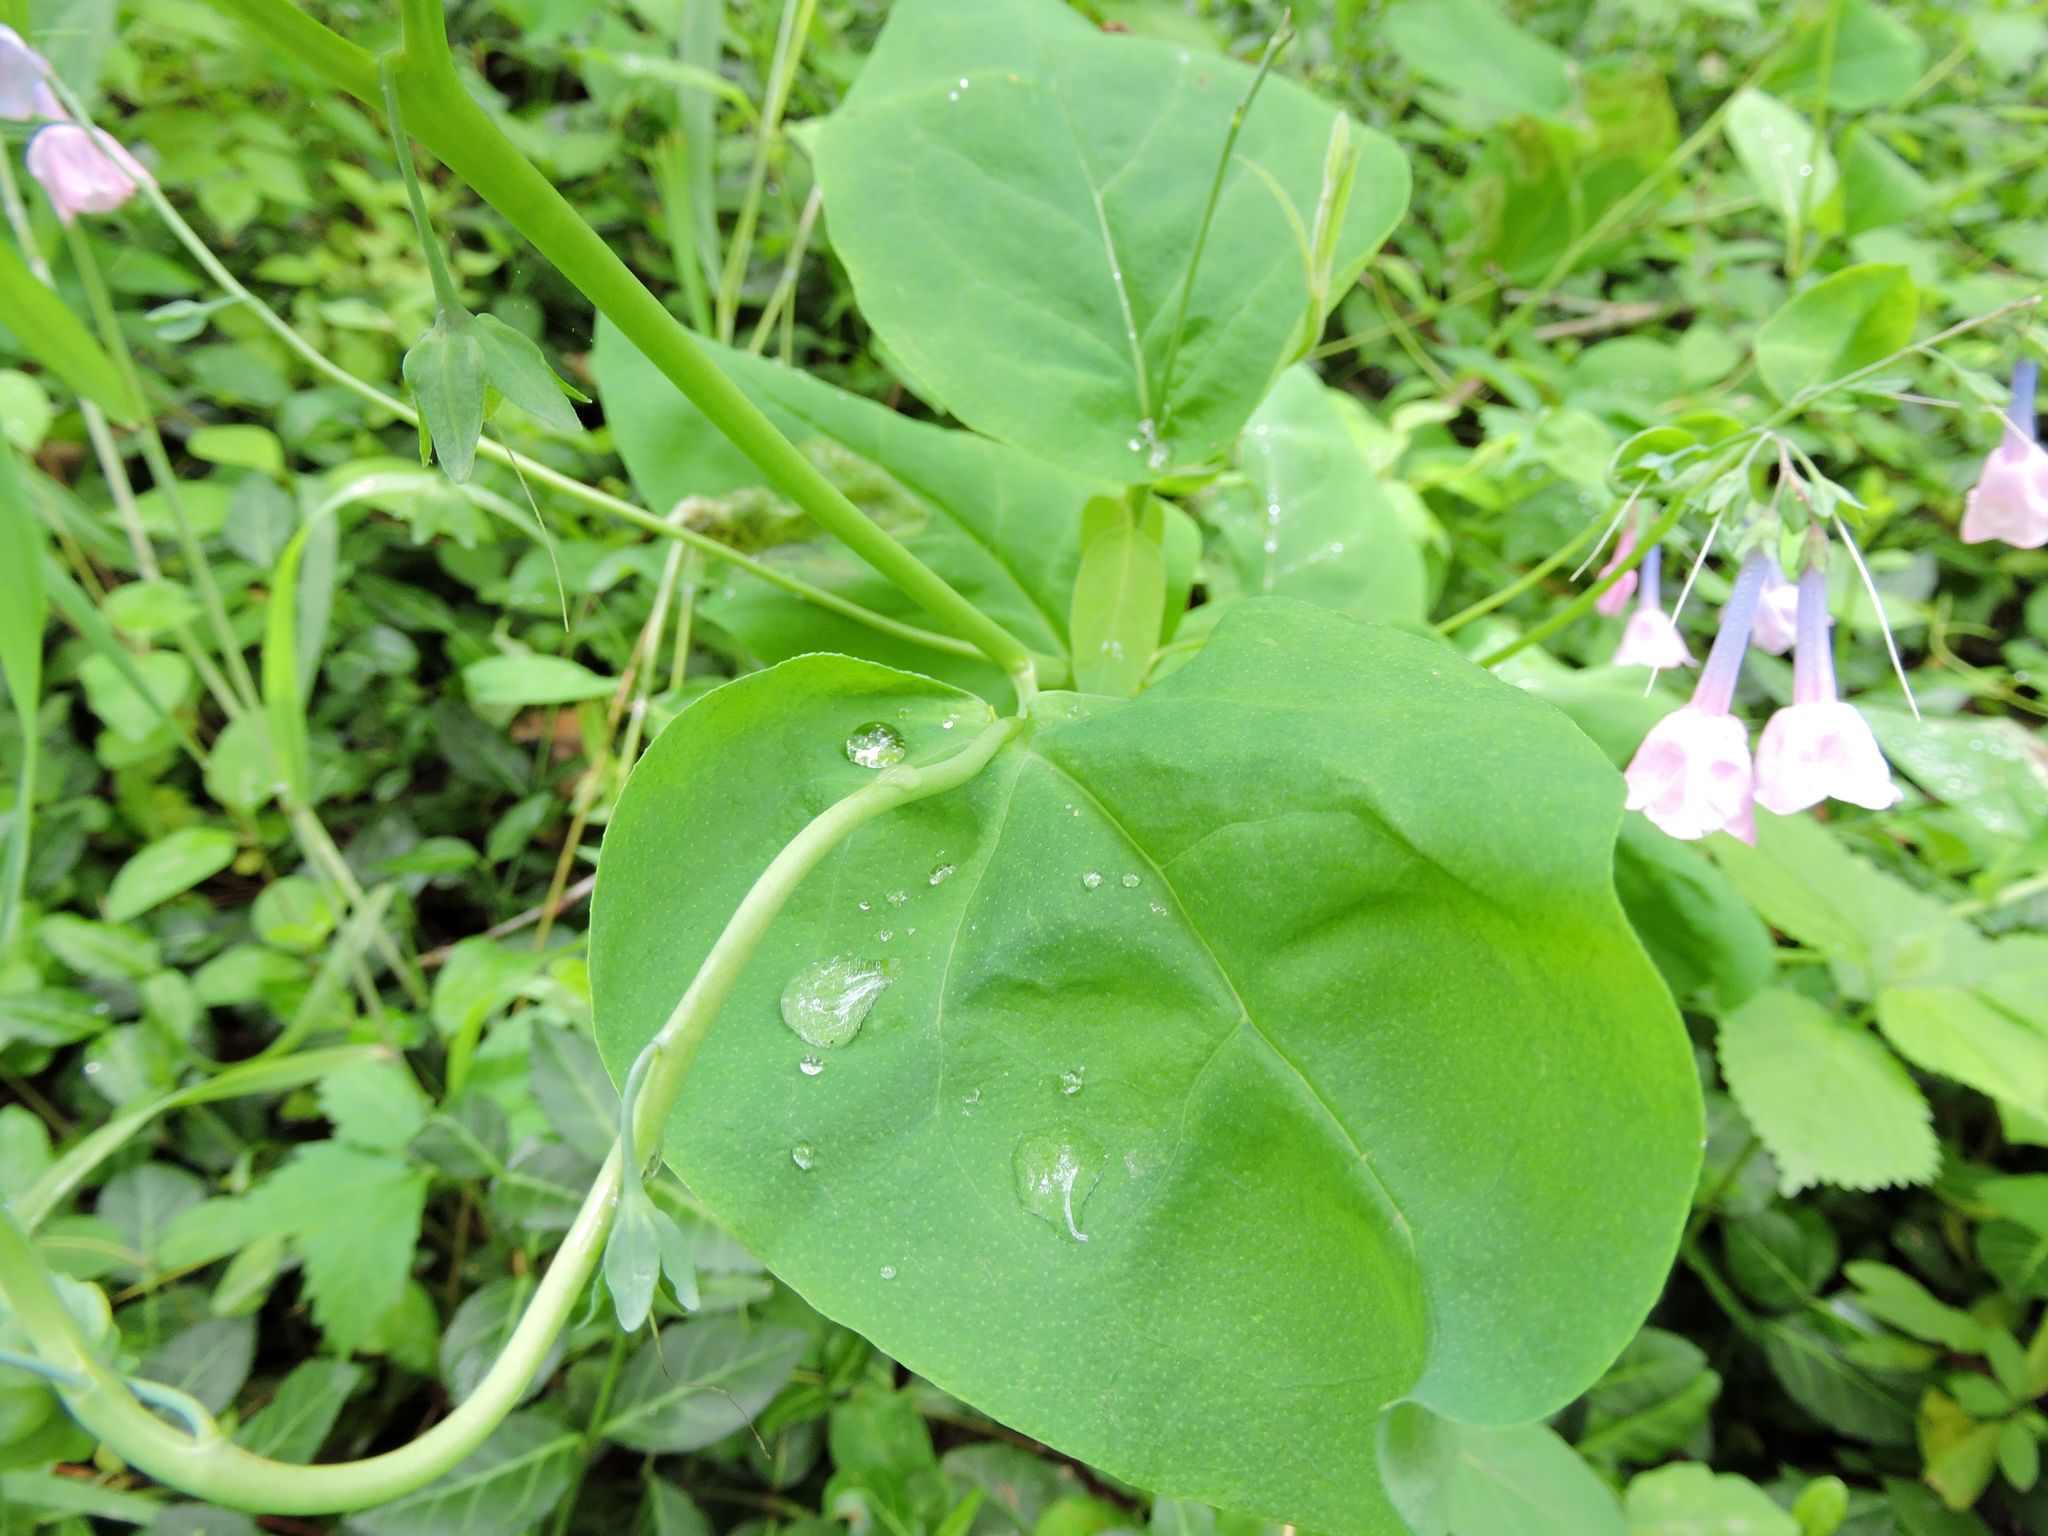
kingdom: Plantae
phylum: Tracheophyta
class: Magnoliopsida
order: Boraginales
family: Boraginaceae
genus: Mertensia
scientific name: Mertensia virginica
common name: Virginia bluebells
